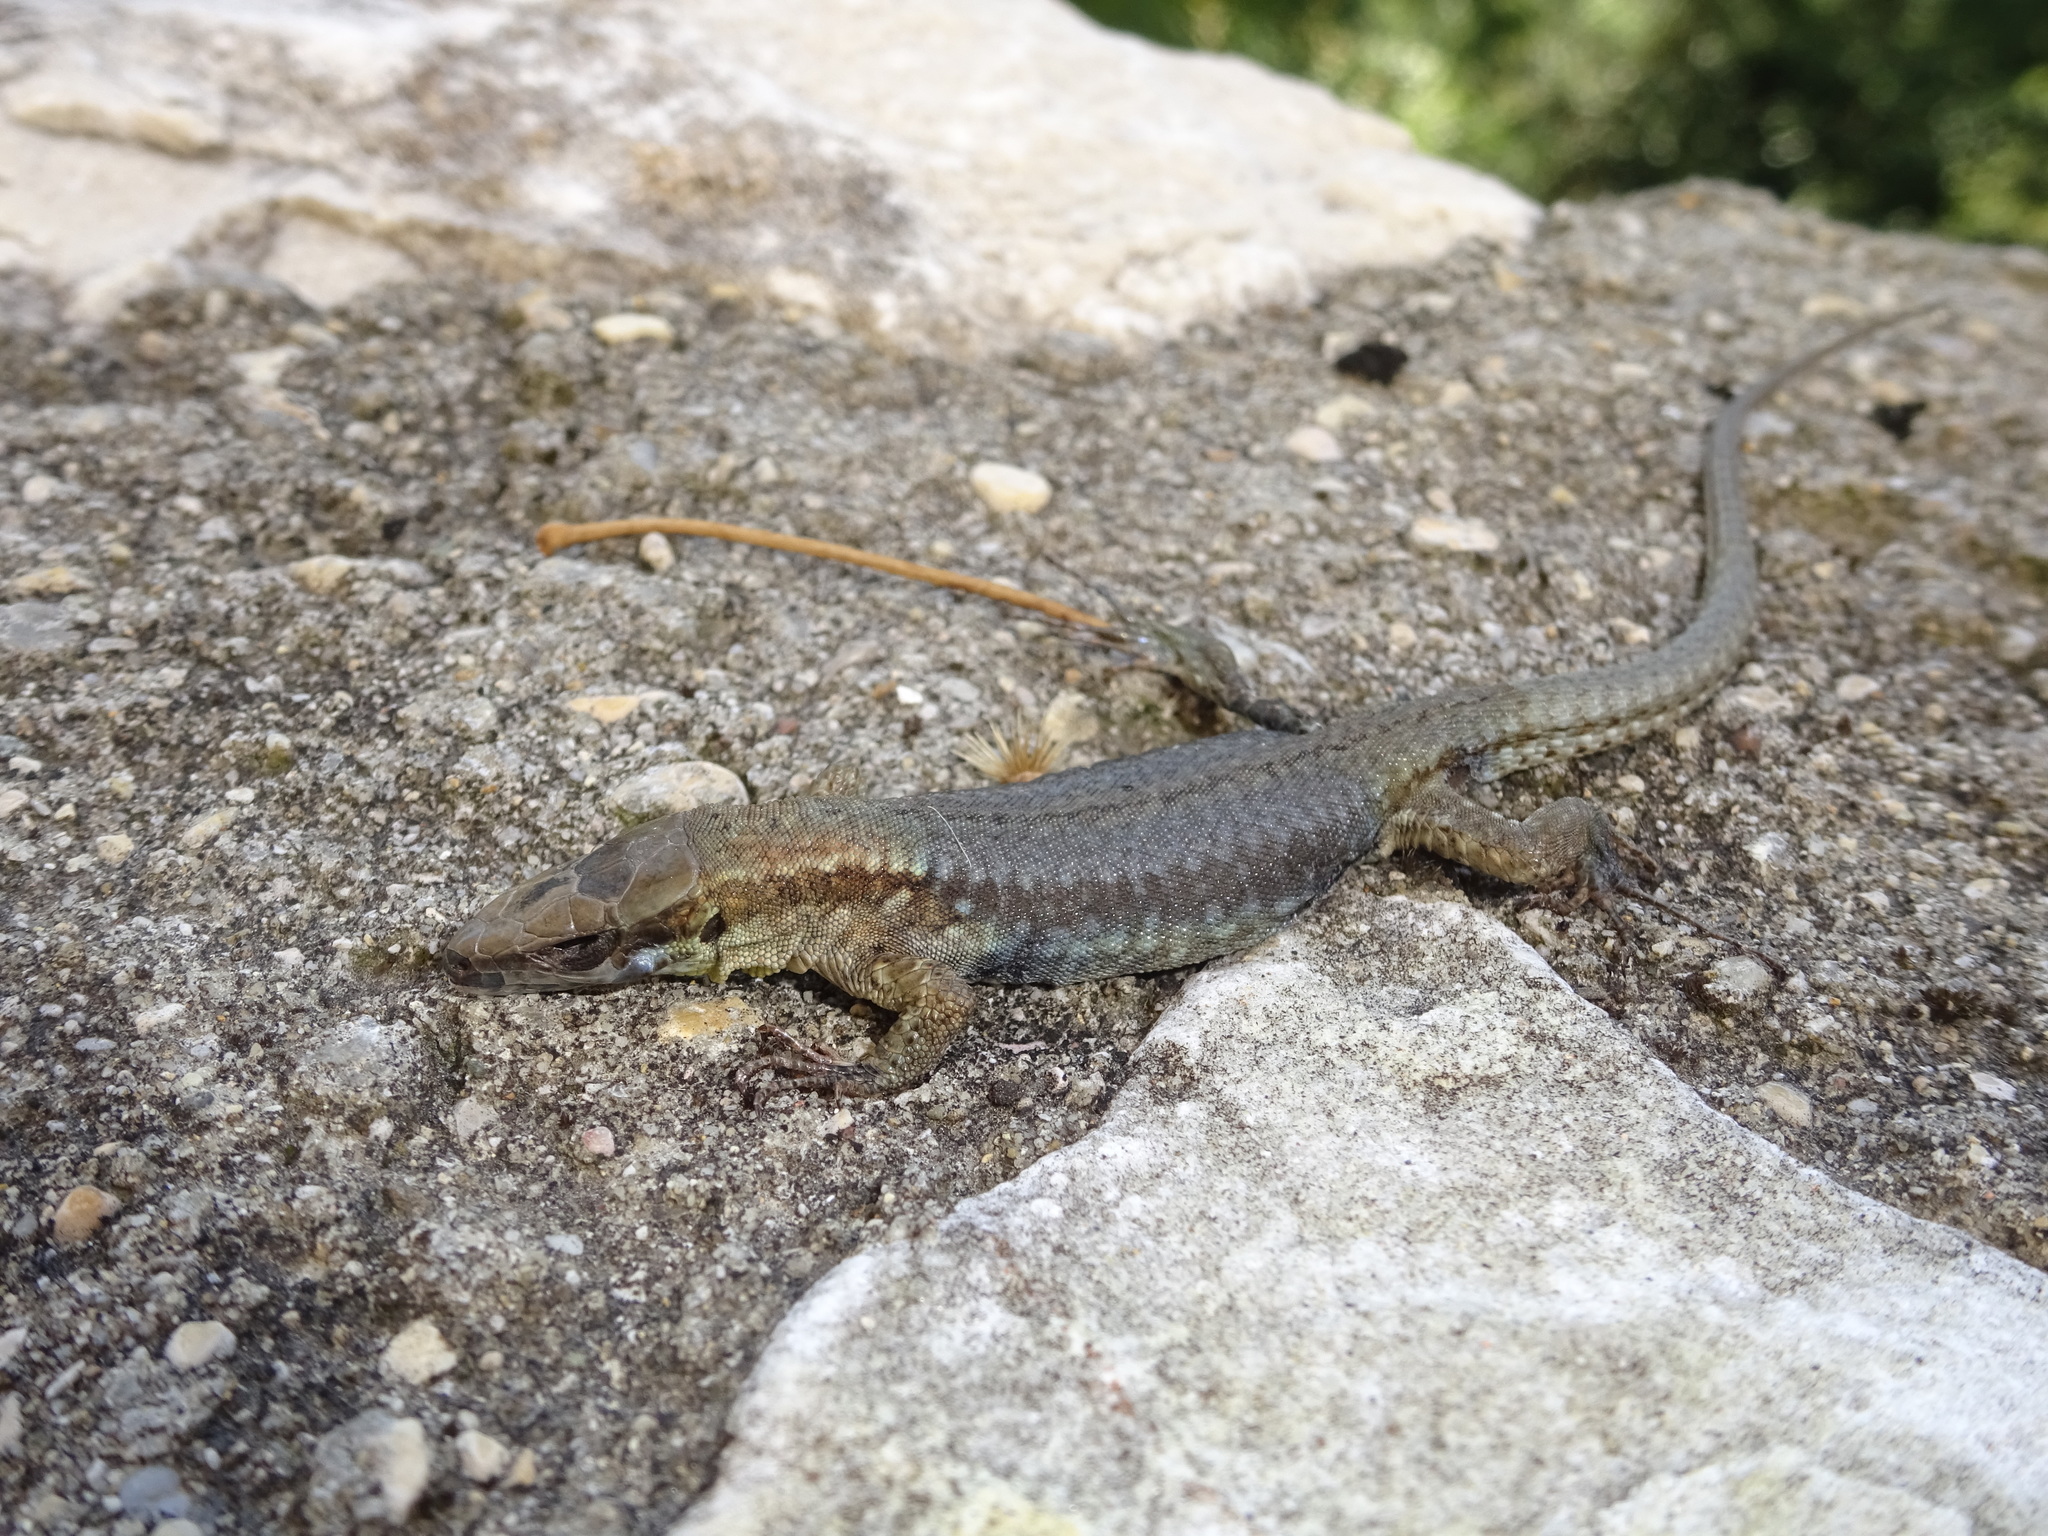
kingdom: Animalia
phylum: Chordata
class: Squamata
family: Lacertidae
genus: Podarcis
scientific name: Podarcis muralis
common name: Common wall lizard
